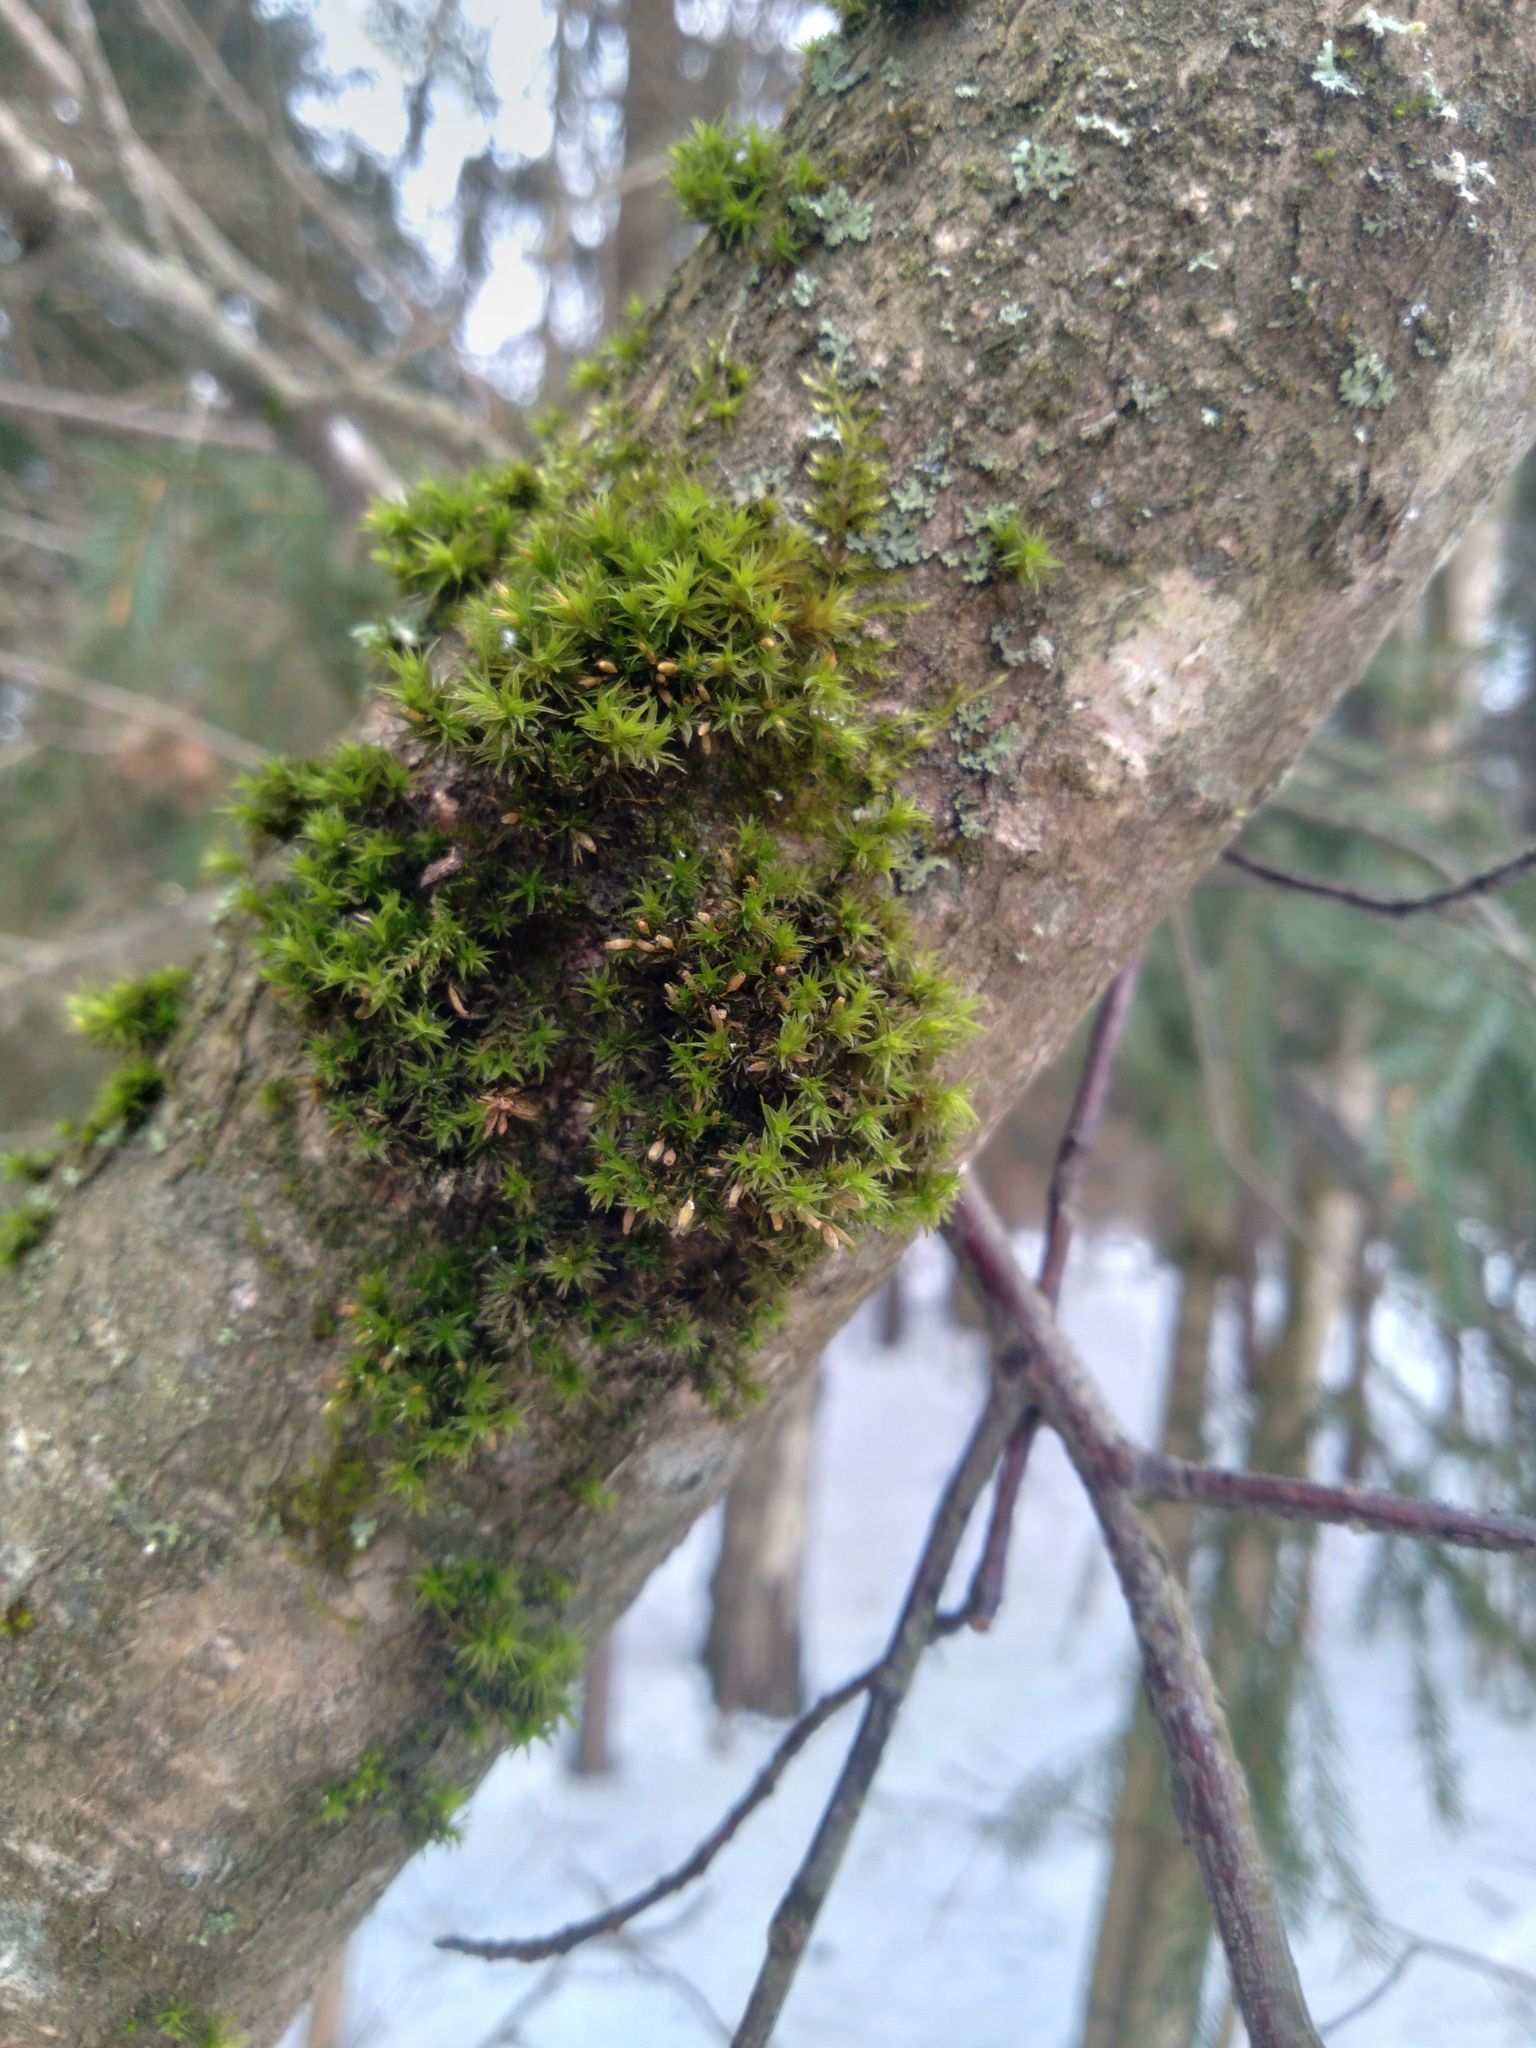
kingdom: Plantae
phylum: Bryophyta
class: Bryopsida
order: Orthotrichales
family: Orthotrichaceae
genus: Lewinskya
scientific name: Lewinskya speciosa
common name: Showy bristle moss
